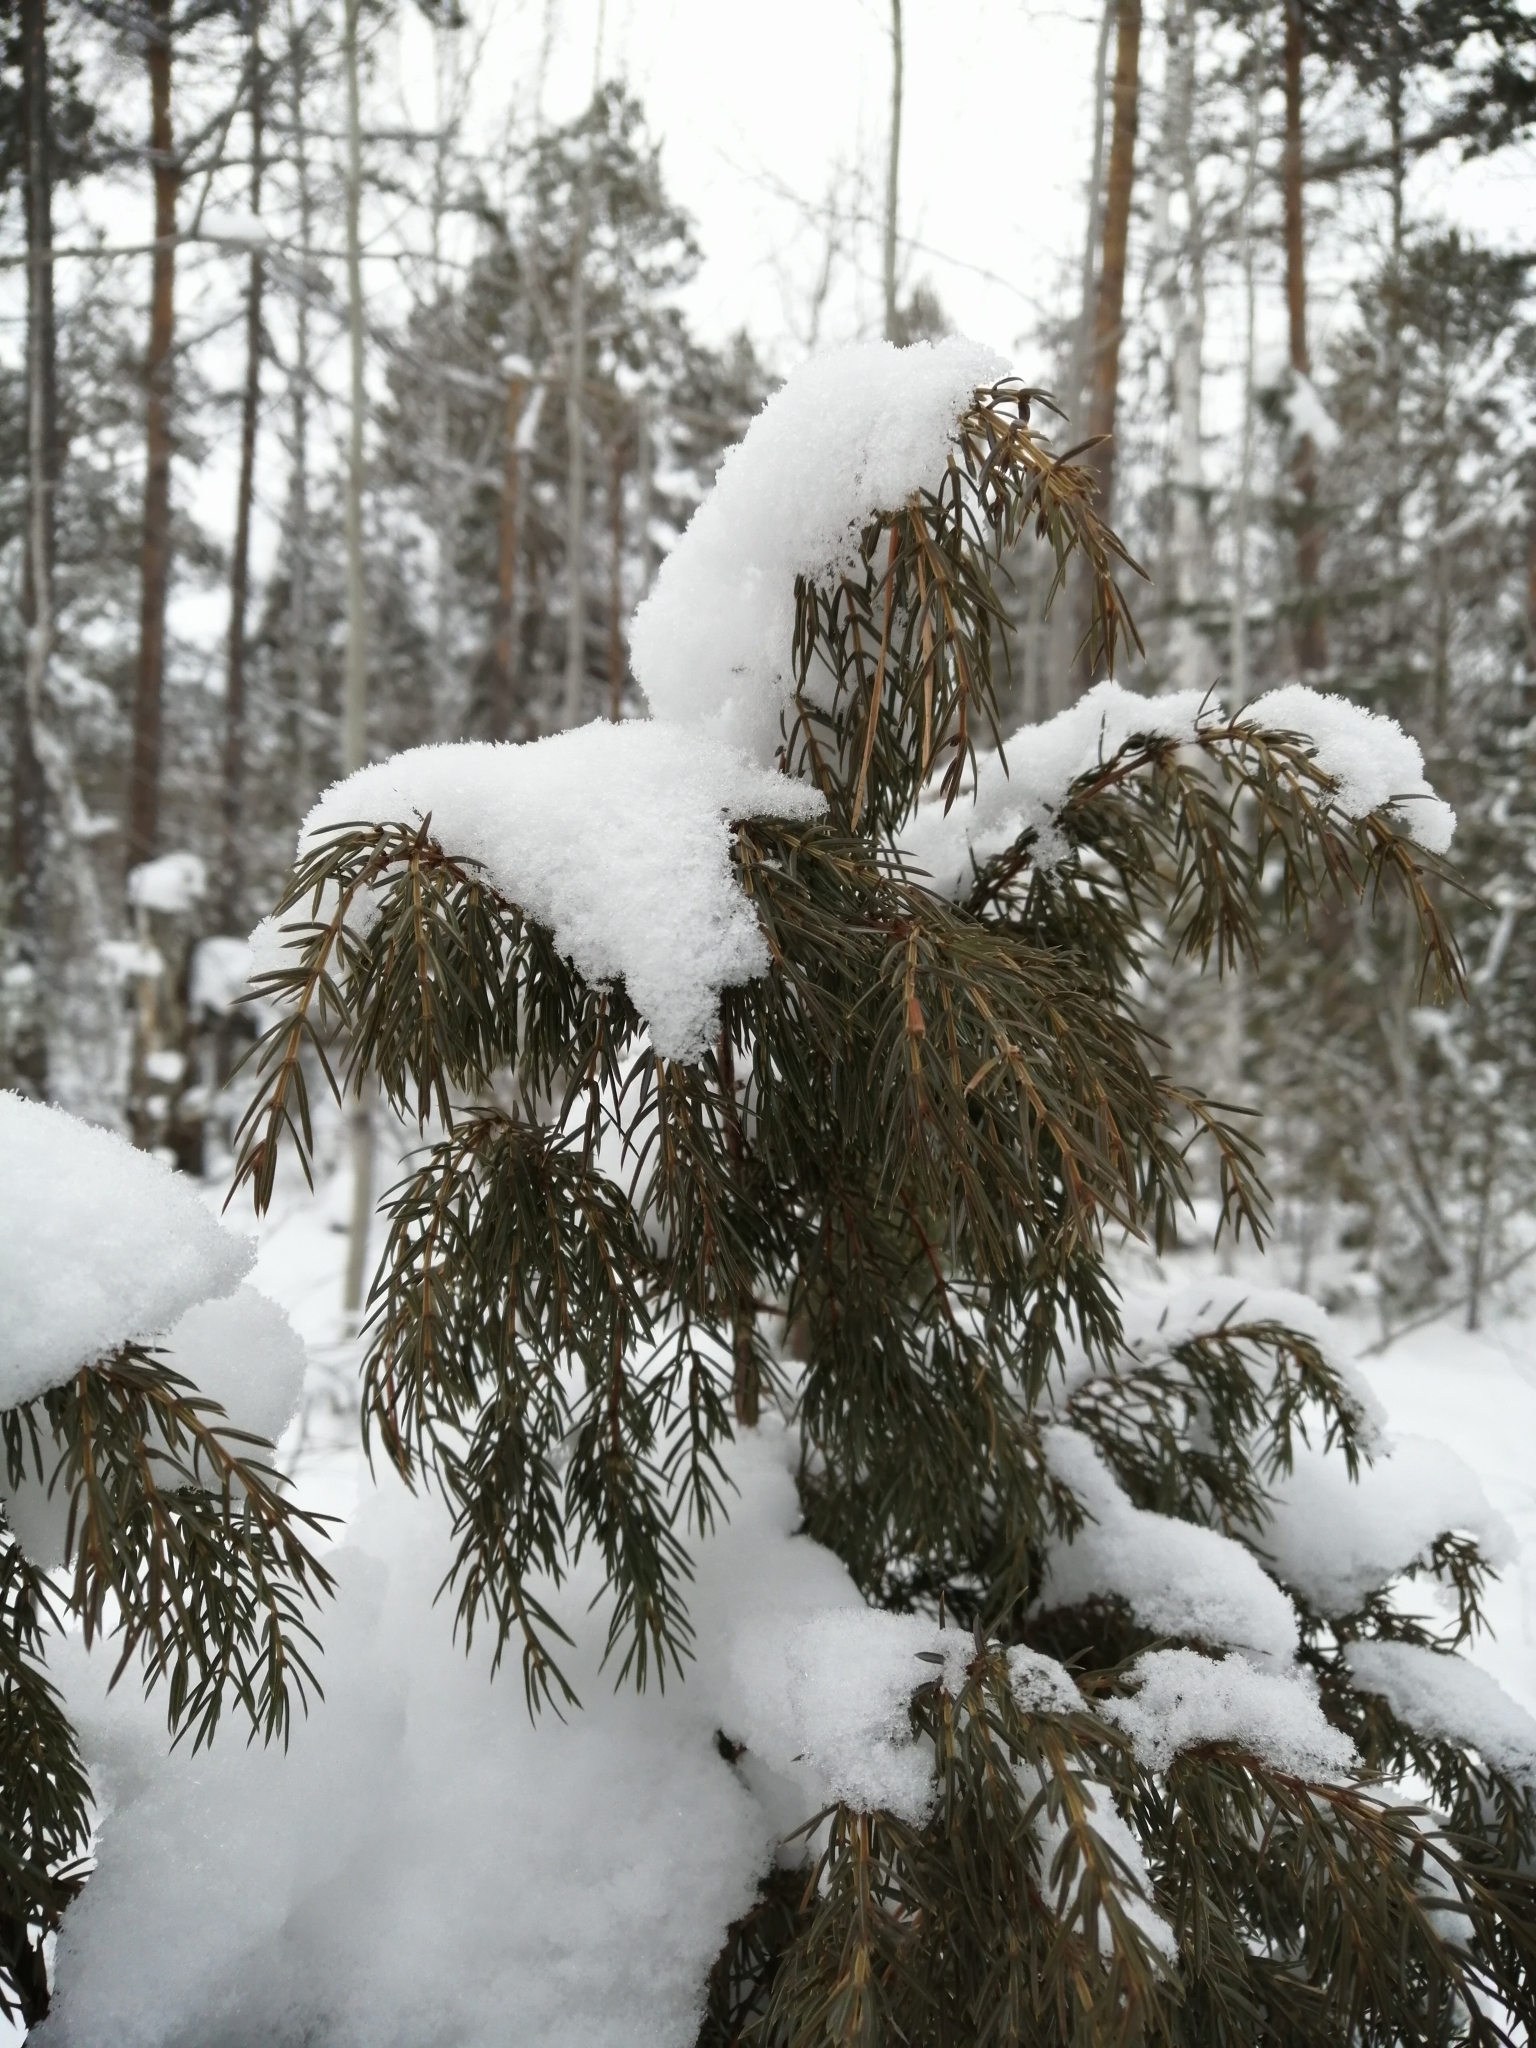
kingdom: Plantae
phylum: Tracheophyta
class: Pinopsida
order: Pinales
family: Cupressaceae
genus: Juniperus
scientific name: Juniperus communis
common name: Common juniper
